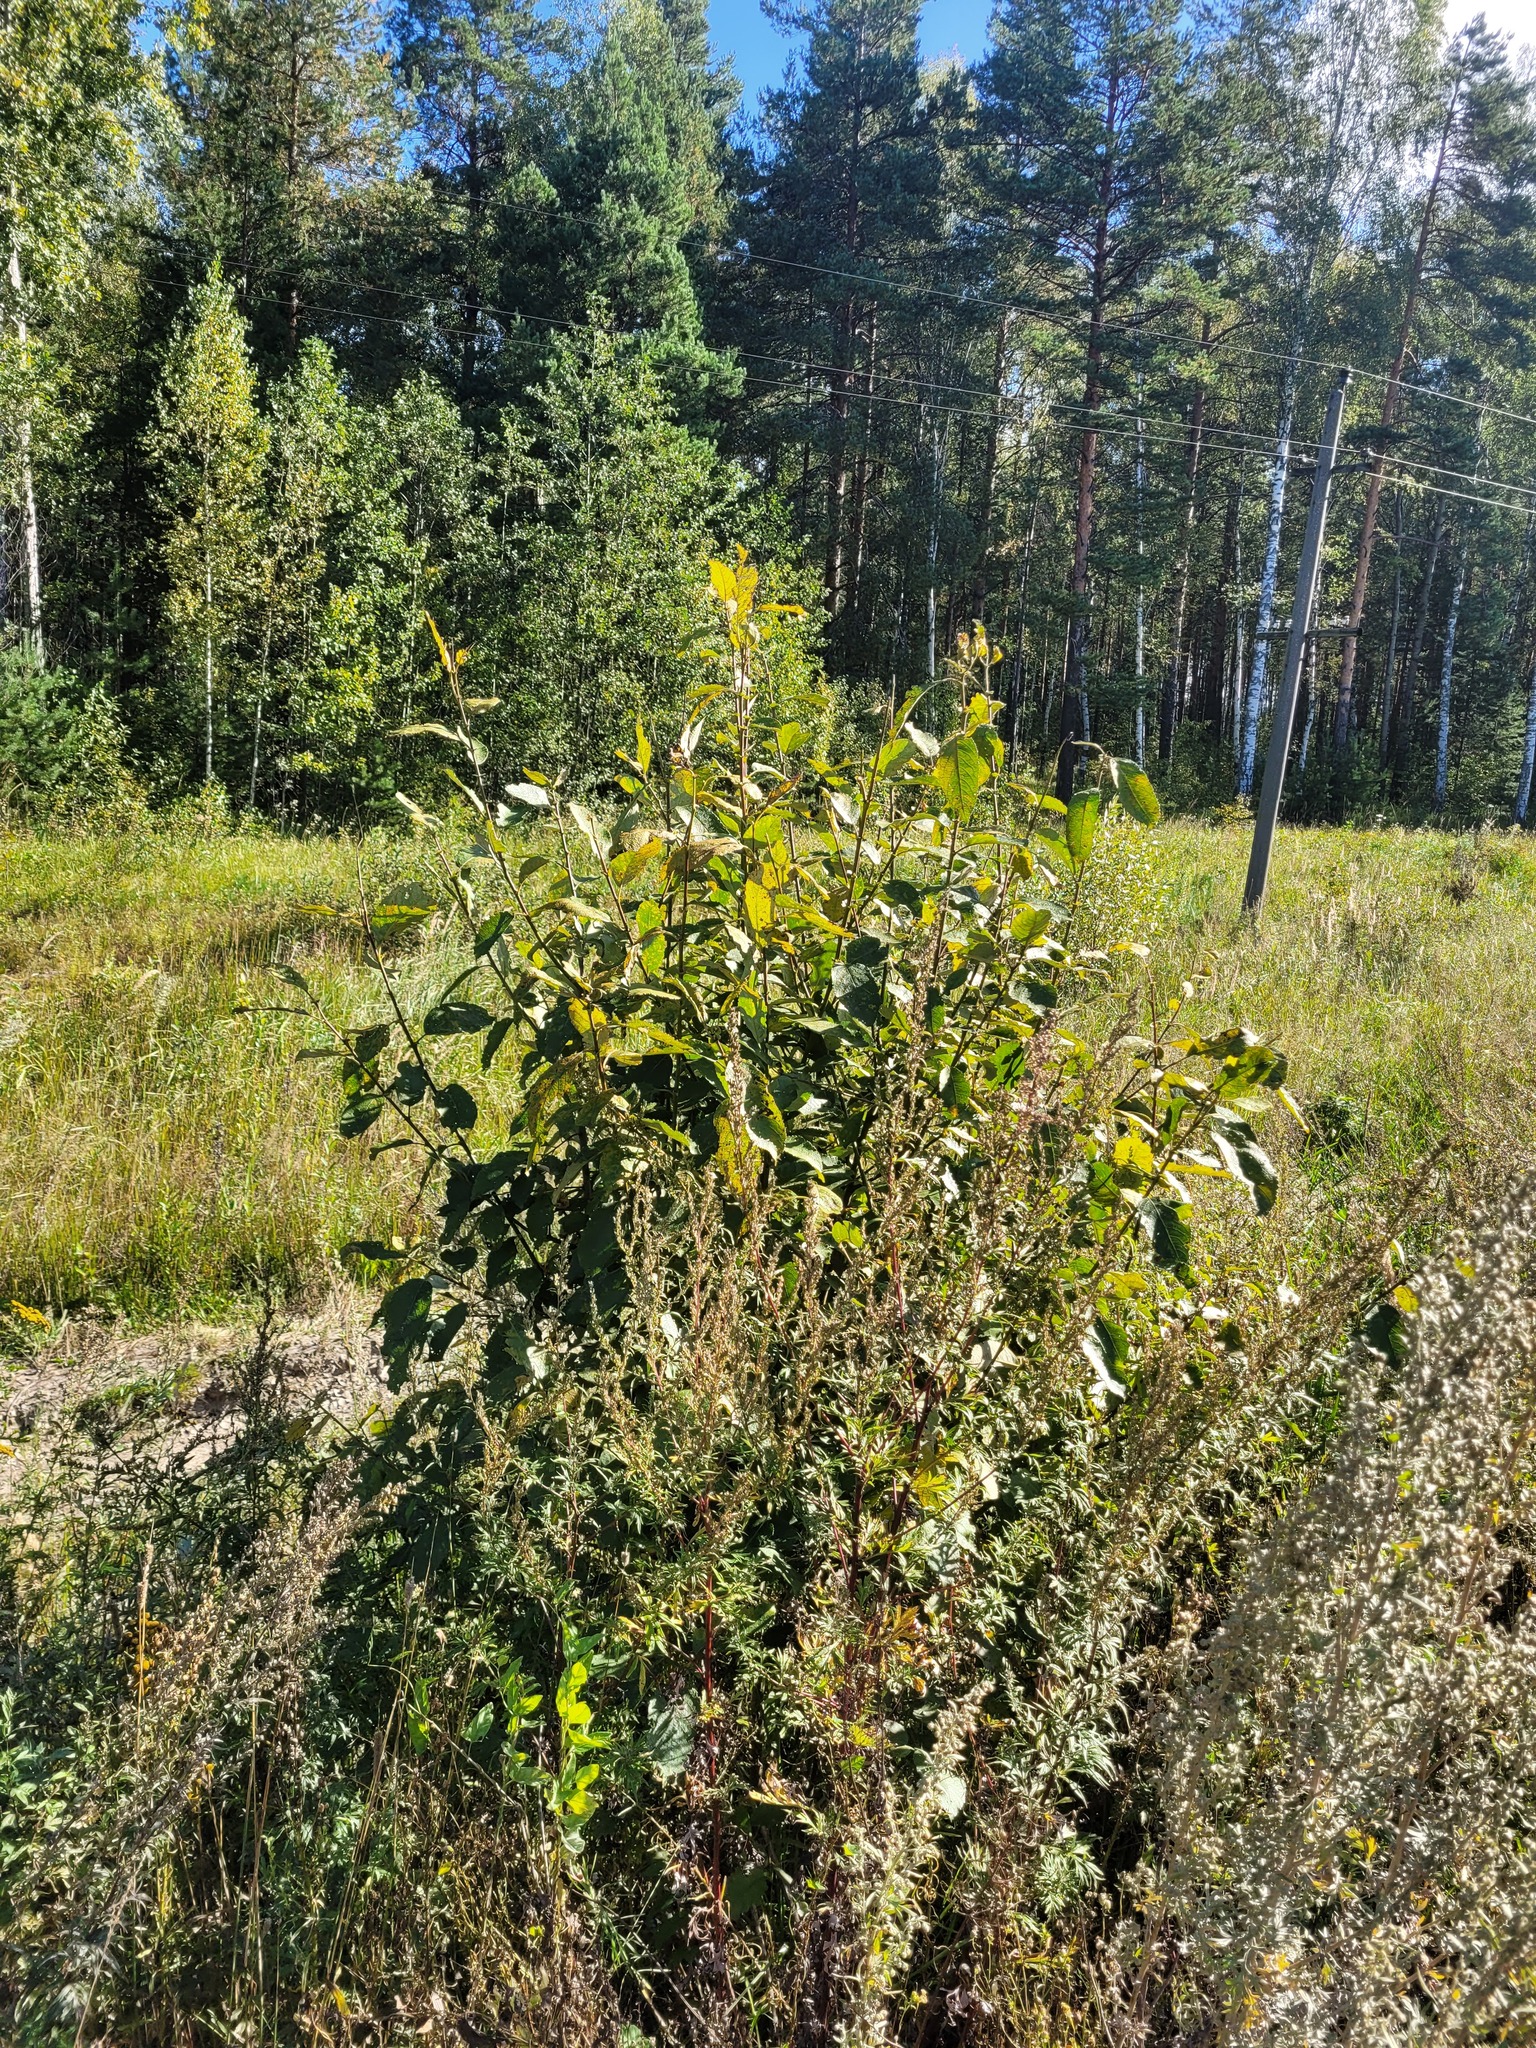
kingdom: Plantae
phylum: Tracheophyta
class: Magnoliopsida
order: Malpighiales
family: Salicaceae
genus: Salix
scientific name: Salix caprea
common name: Goat willow
